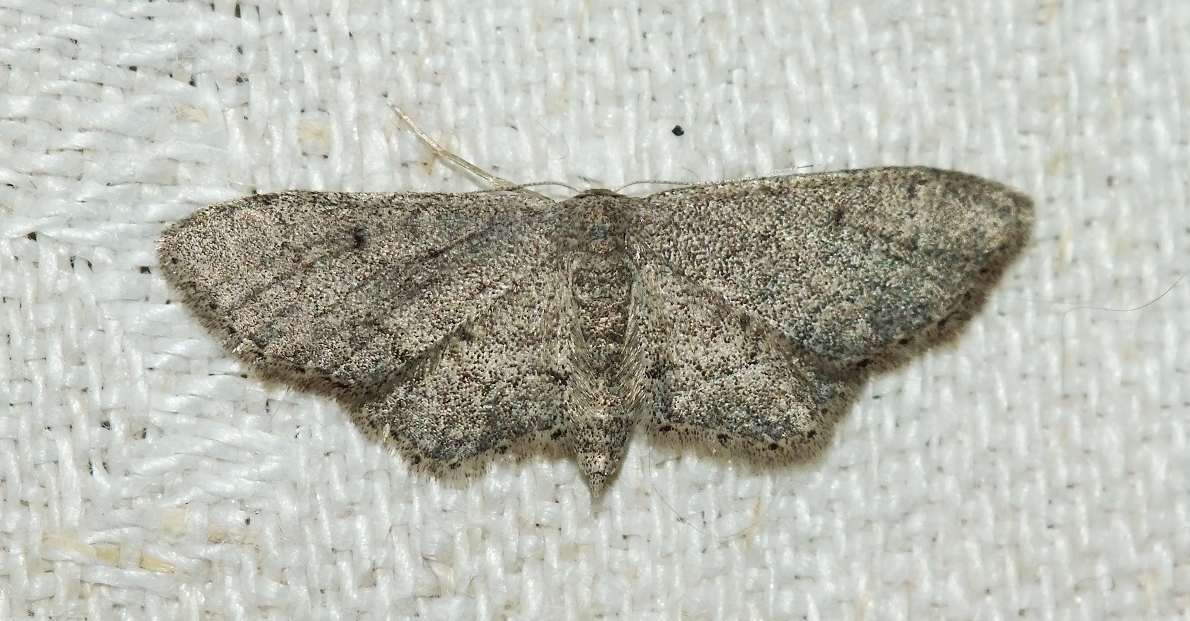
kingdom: Animalia
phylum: Arthropoda
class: Insecta
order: Lepidoptera
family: Geometridae
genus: Idaea
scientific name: Idaea descitaria
